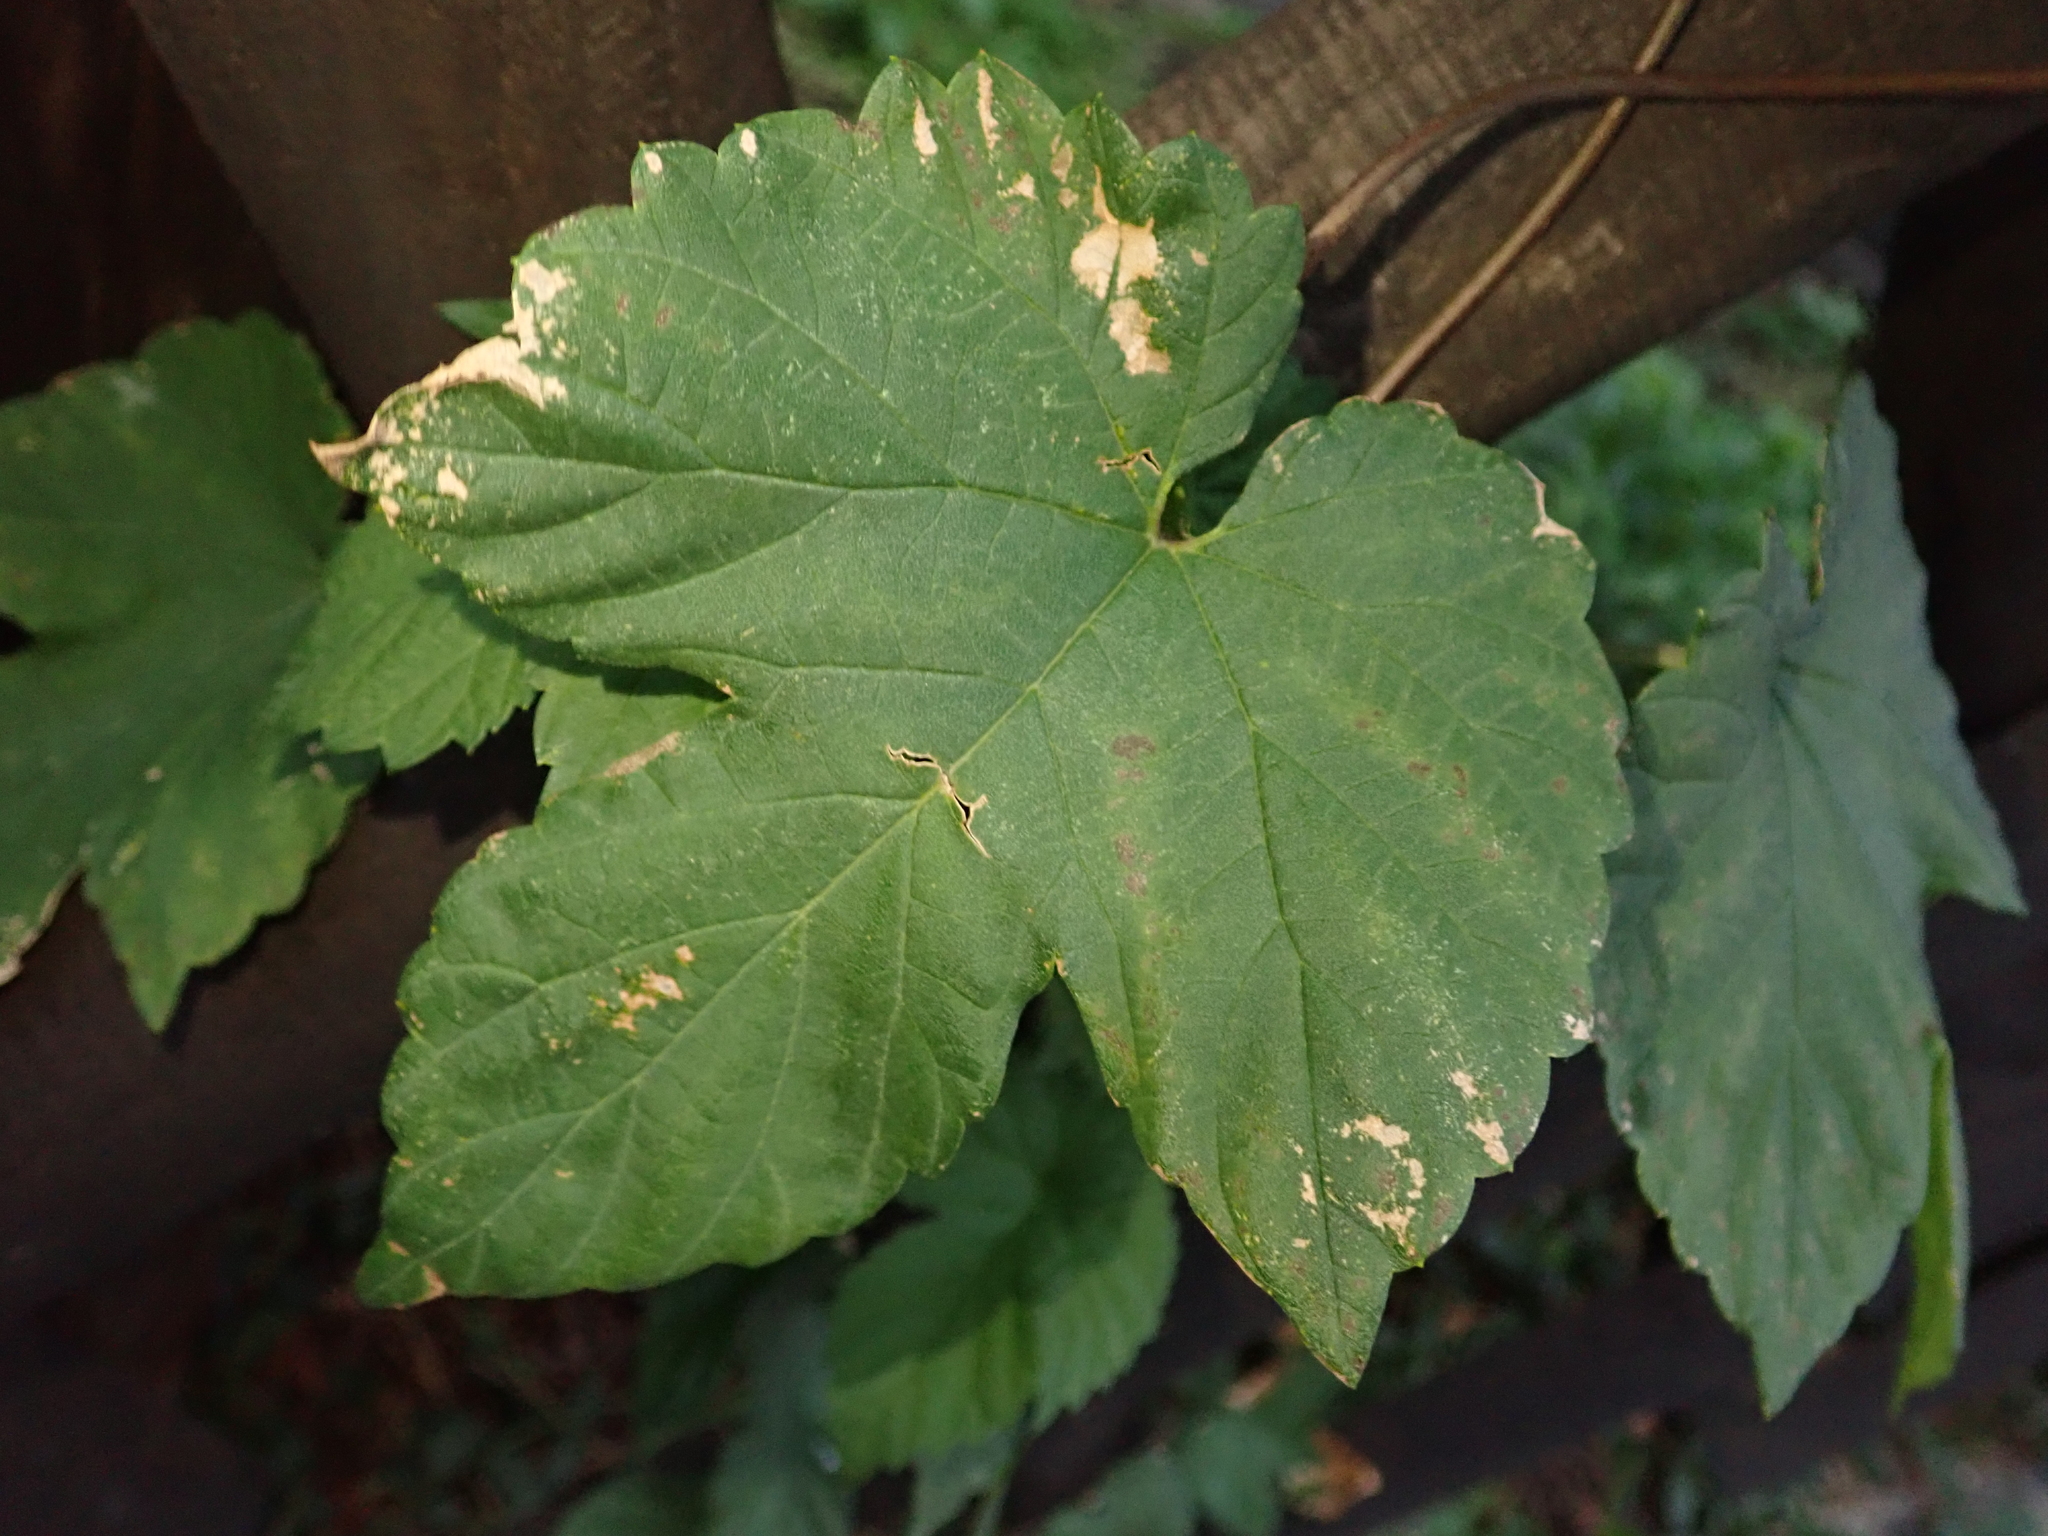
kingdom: Plantae
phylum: Tracheophyta
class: Magnoliopsida
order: Rosales
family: Cannabaceae
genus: Humulus
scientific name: Humulus lupulus
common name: Hop
